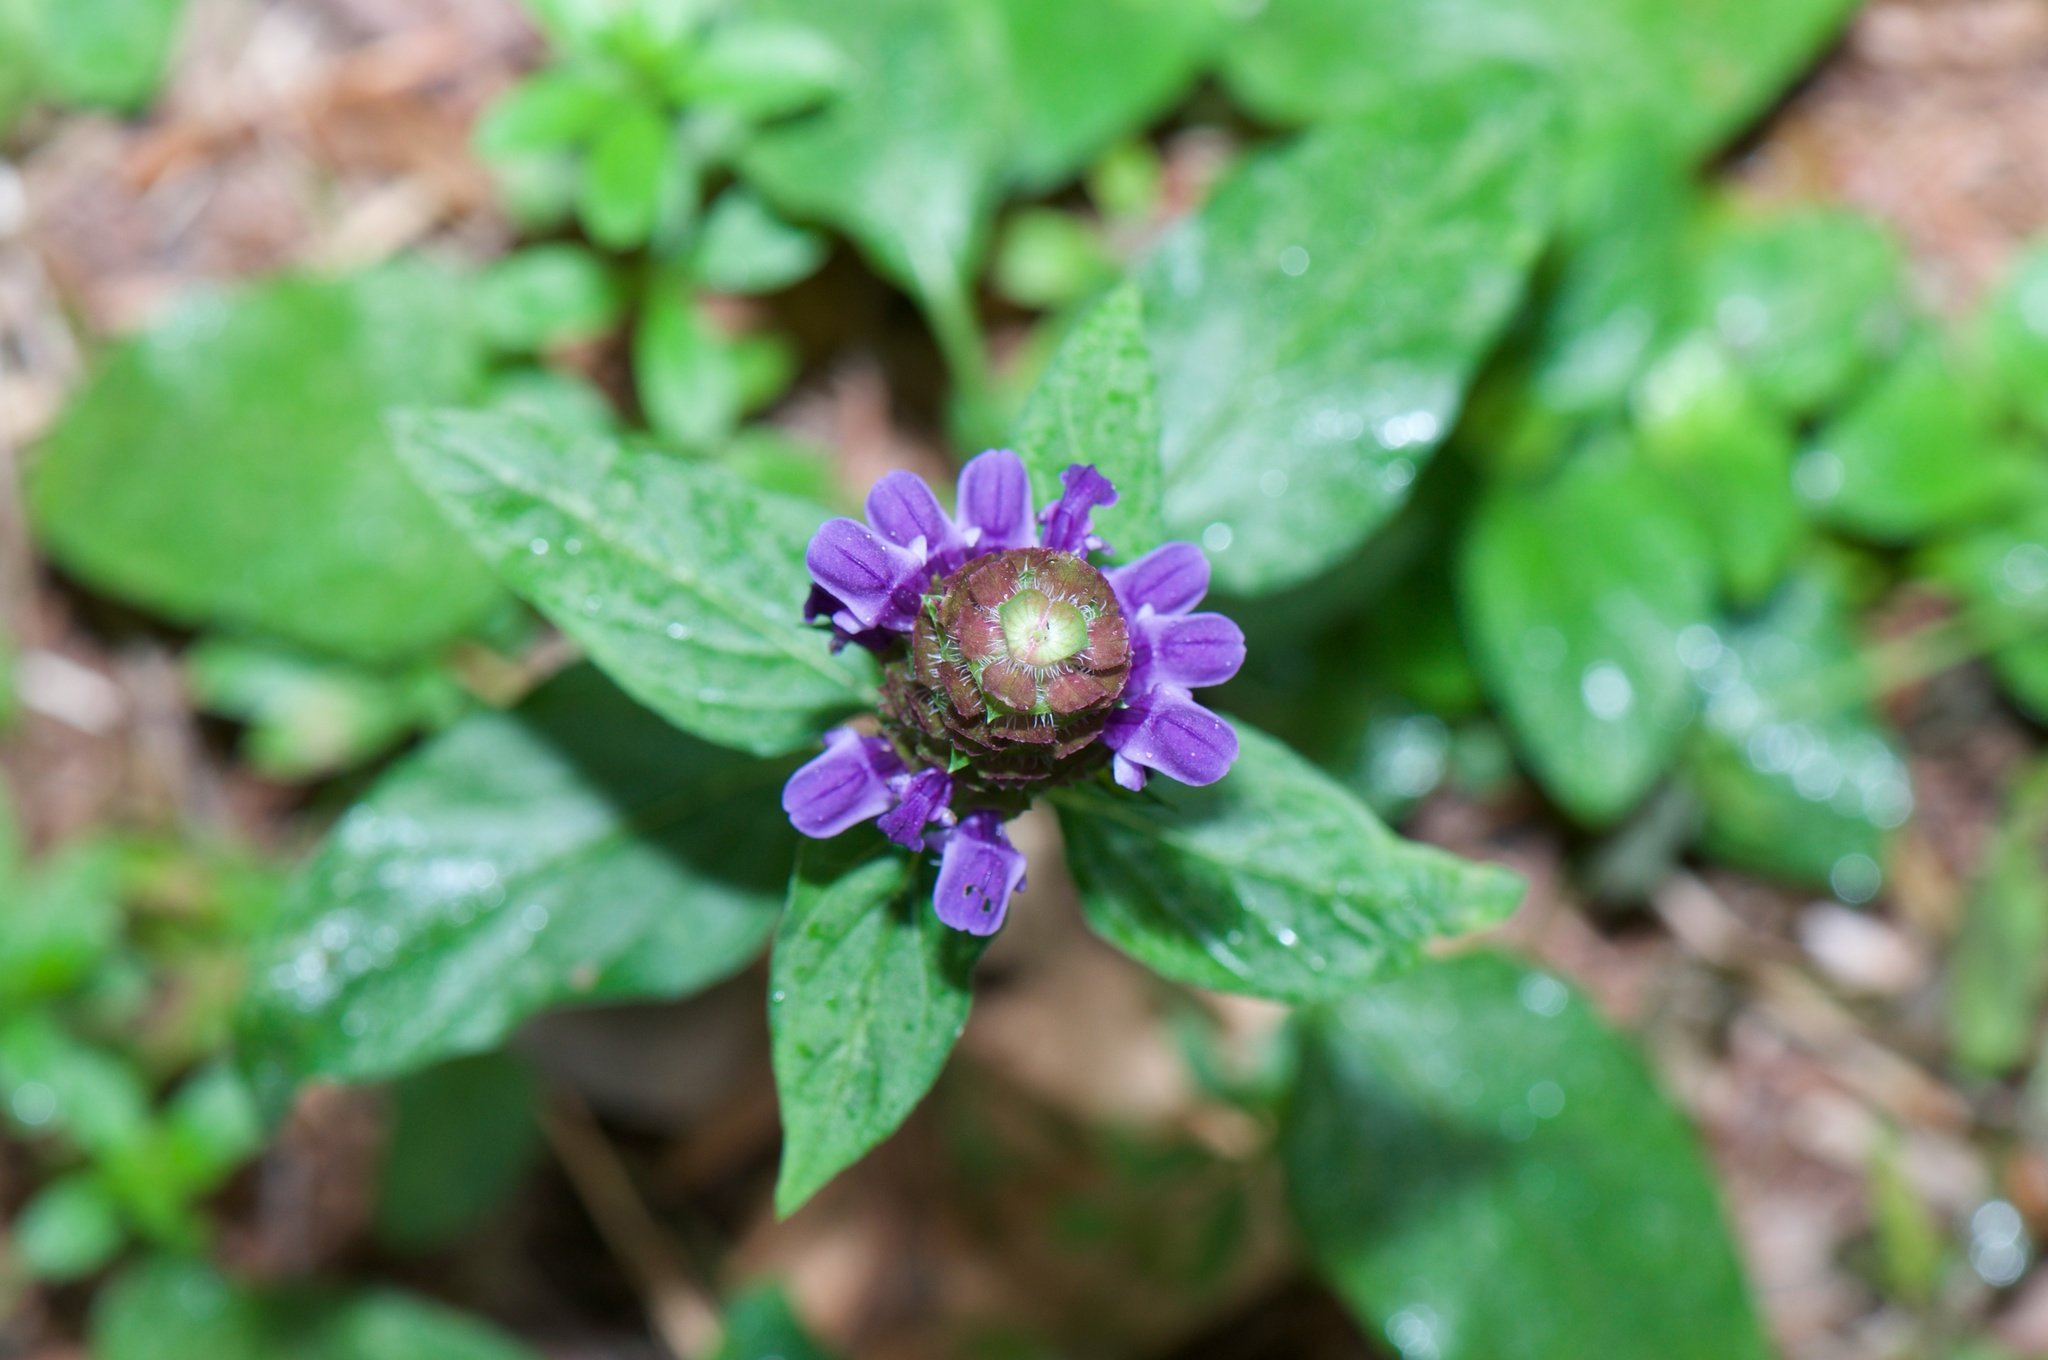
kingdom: Plantae
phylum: Tracheophyta
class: Magnoliopsida
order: Lamiales
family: Lamiaceae
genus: Prunella
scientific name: Prunella vulgaris
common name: Heal-all
